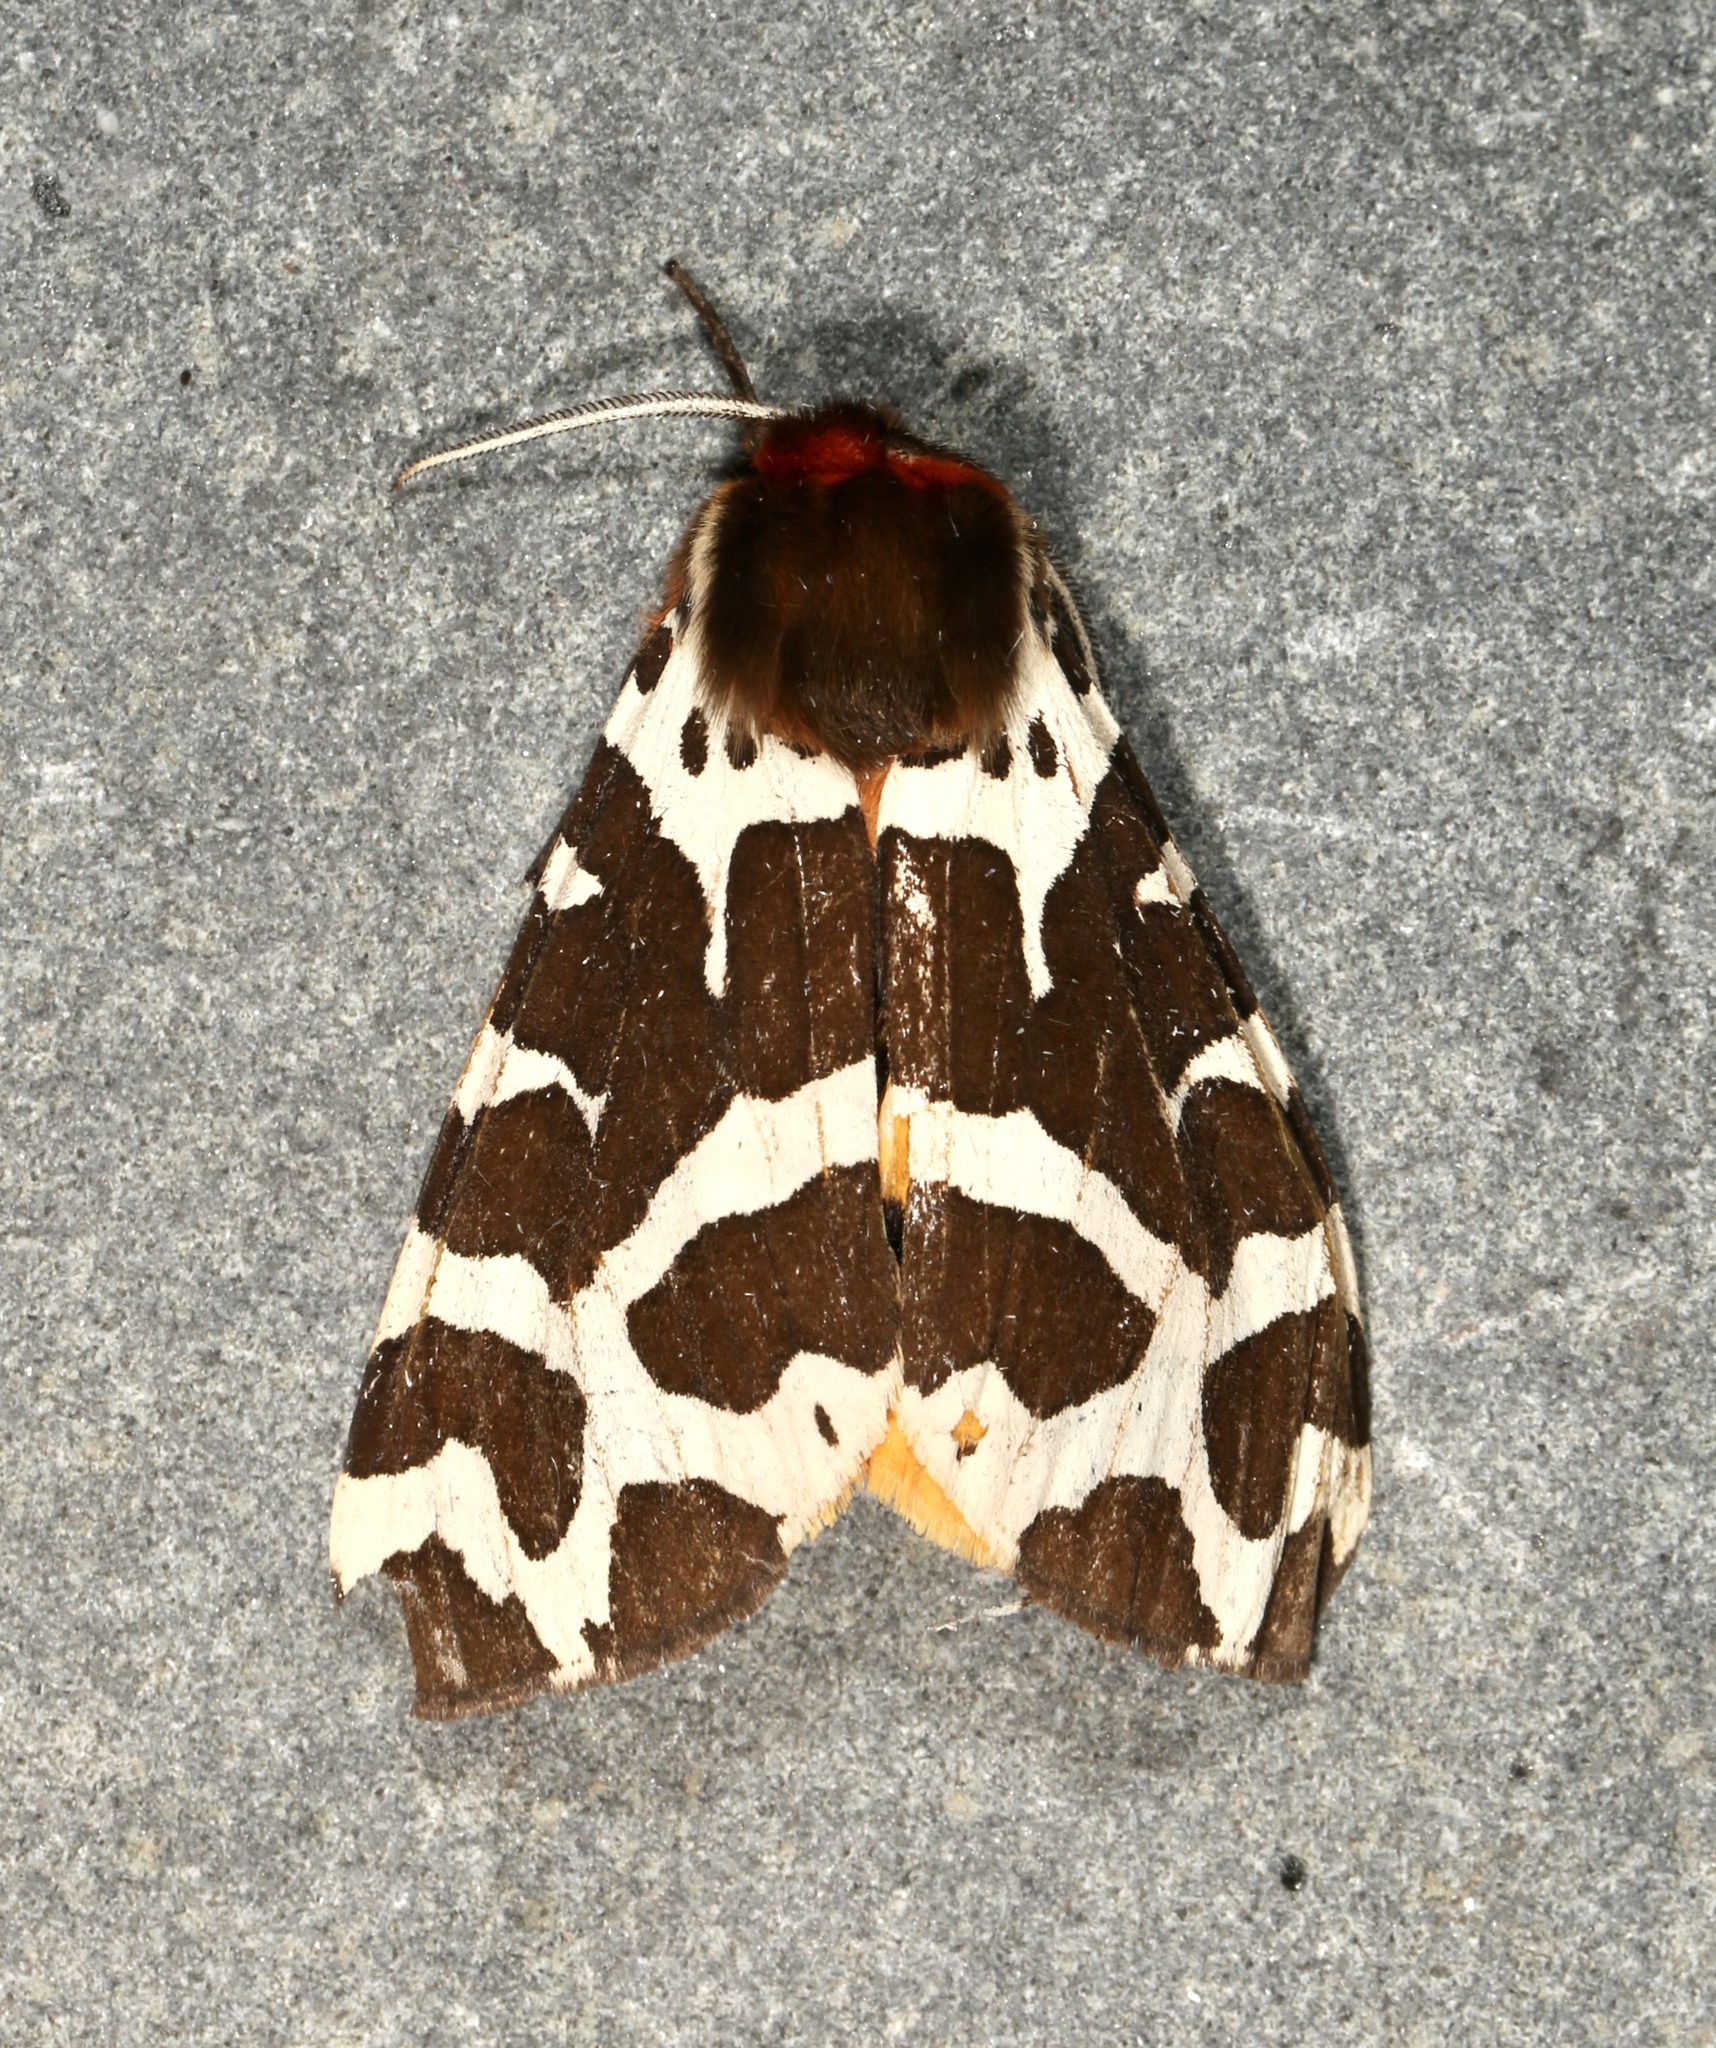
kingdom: Animalia
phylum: Arthropoda
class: Insecta
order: Lepidoptera
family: Erebidae
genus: Arctia
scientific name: Arctia caja
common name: Garden tiger
